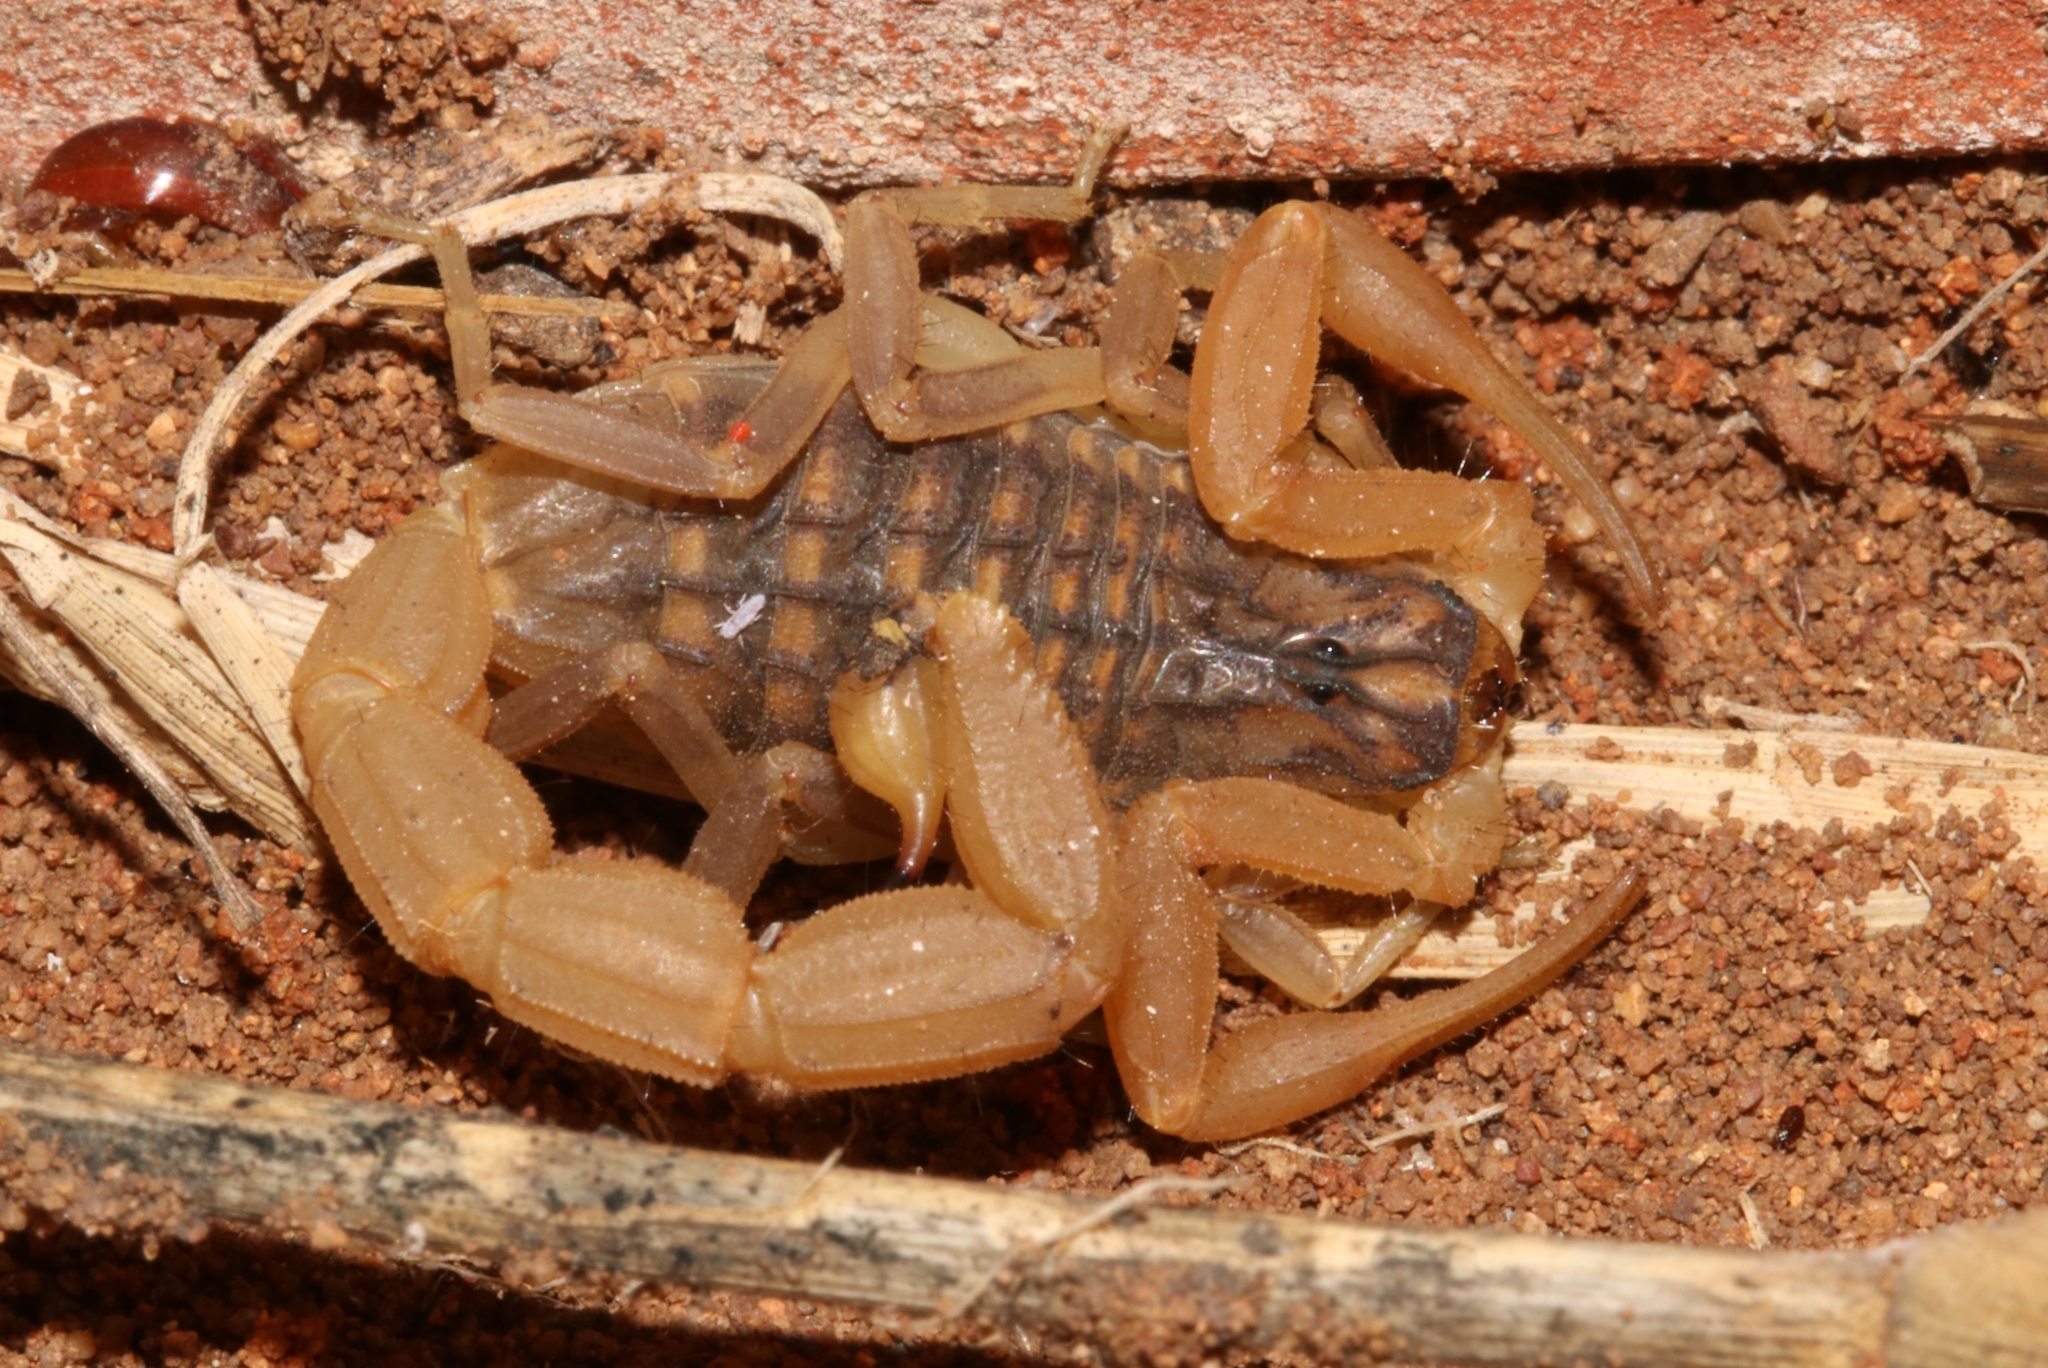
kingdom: Animalia
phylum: Arthropoda
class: Arachnida
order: Scorpiones
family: Buthidae
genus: Aegaeobuthus
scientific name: Aegaeobuthus gibbosus
